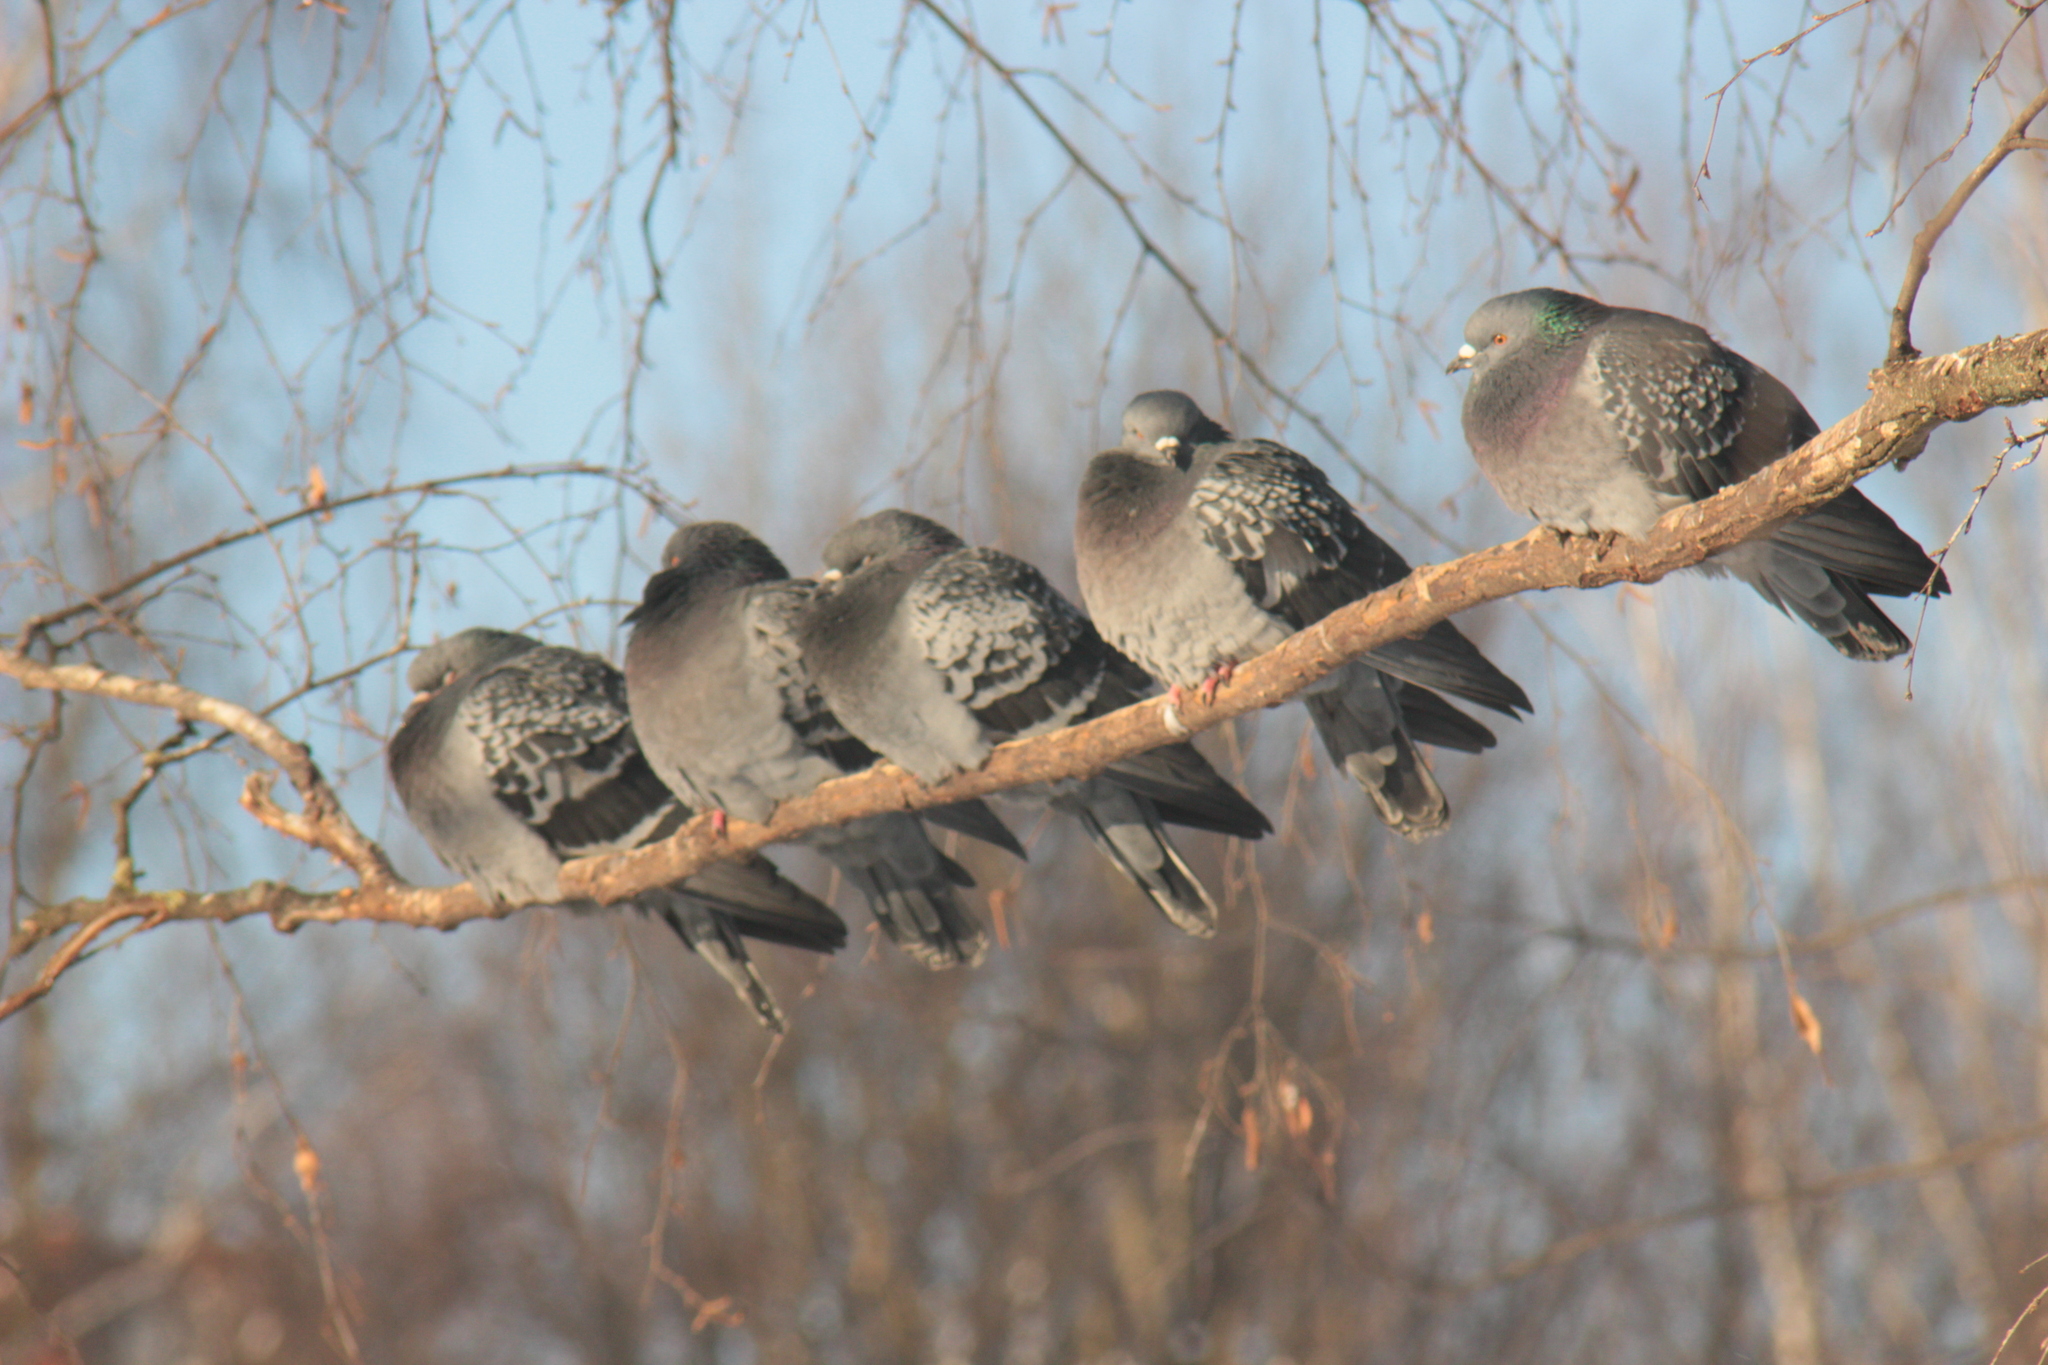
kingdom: Animalia
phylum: Chordata
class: Aves
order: Columbiformes
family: Columbidae
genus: Columba
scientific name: Columba livia
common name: Rock pigeon
